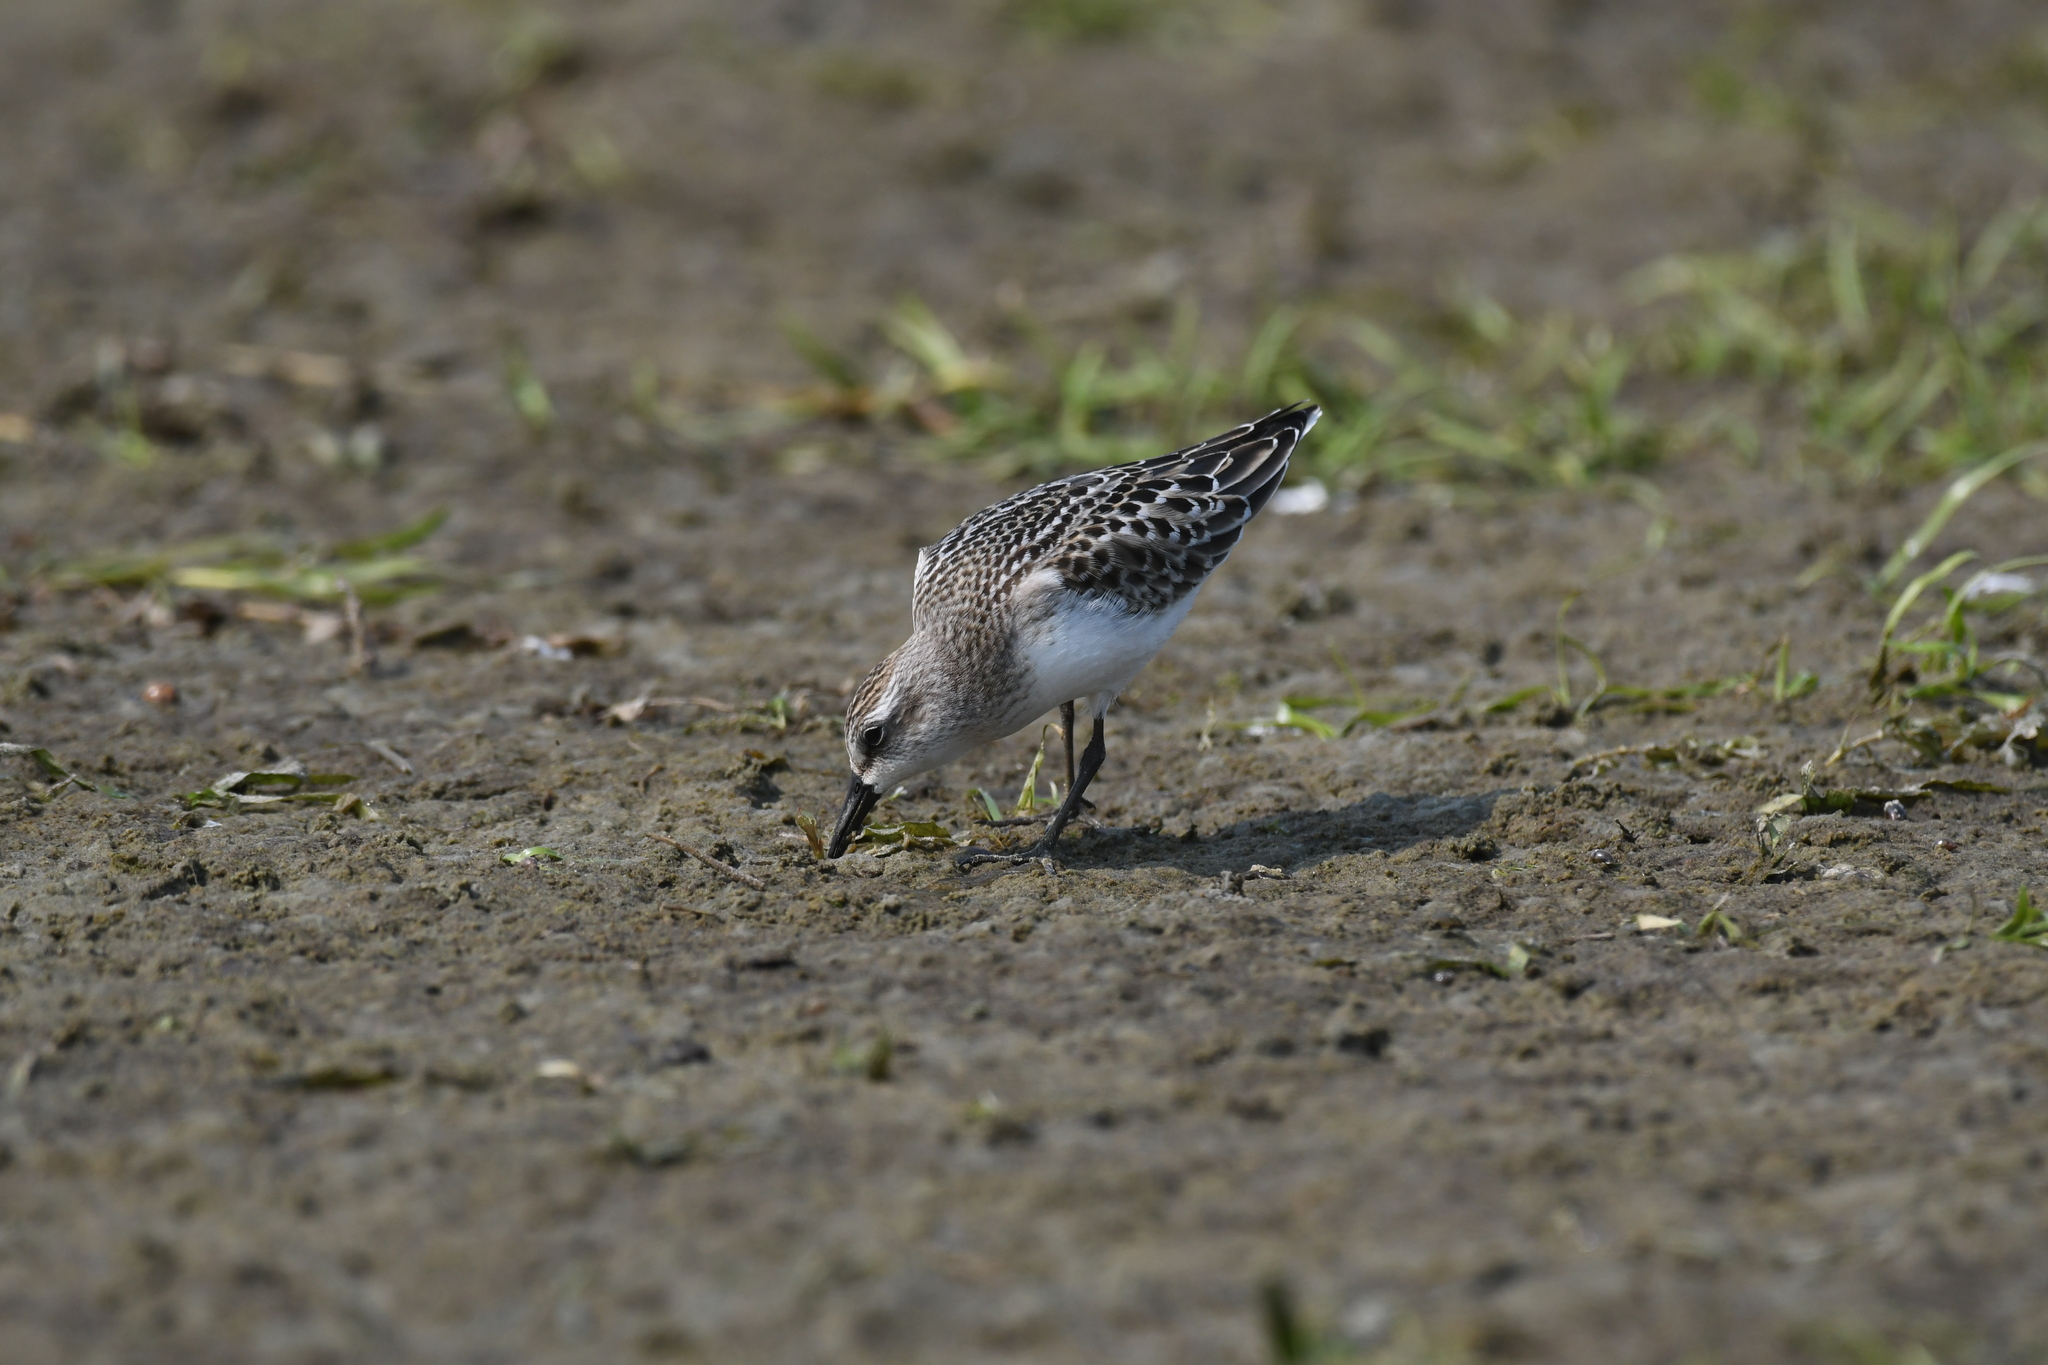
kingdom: Animalia
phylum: Chordata
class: Aves
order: Charadriiformes
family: Scolopacidae
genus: Calidris
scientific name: Calidris pusilla
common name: Semipalmated sandpiper
